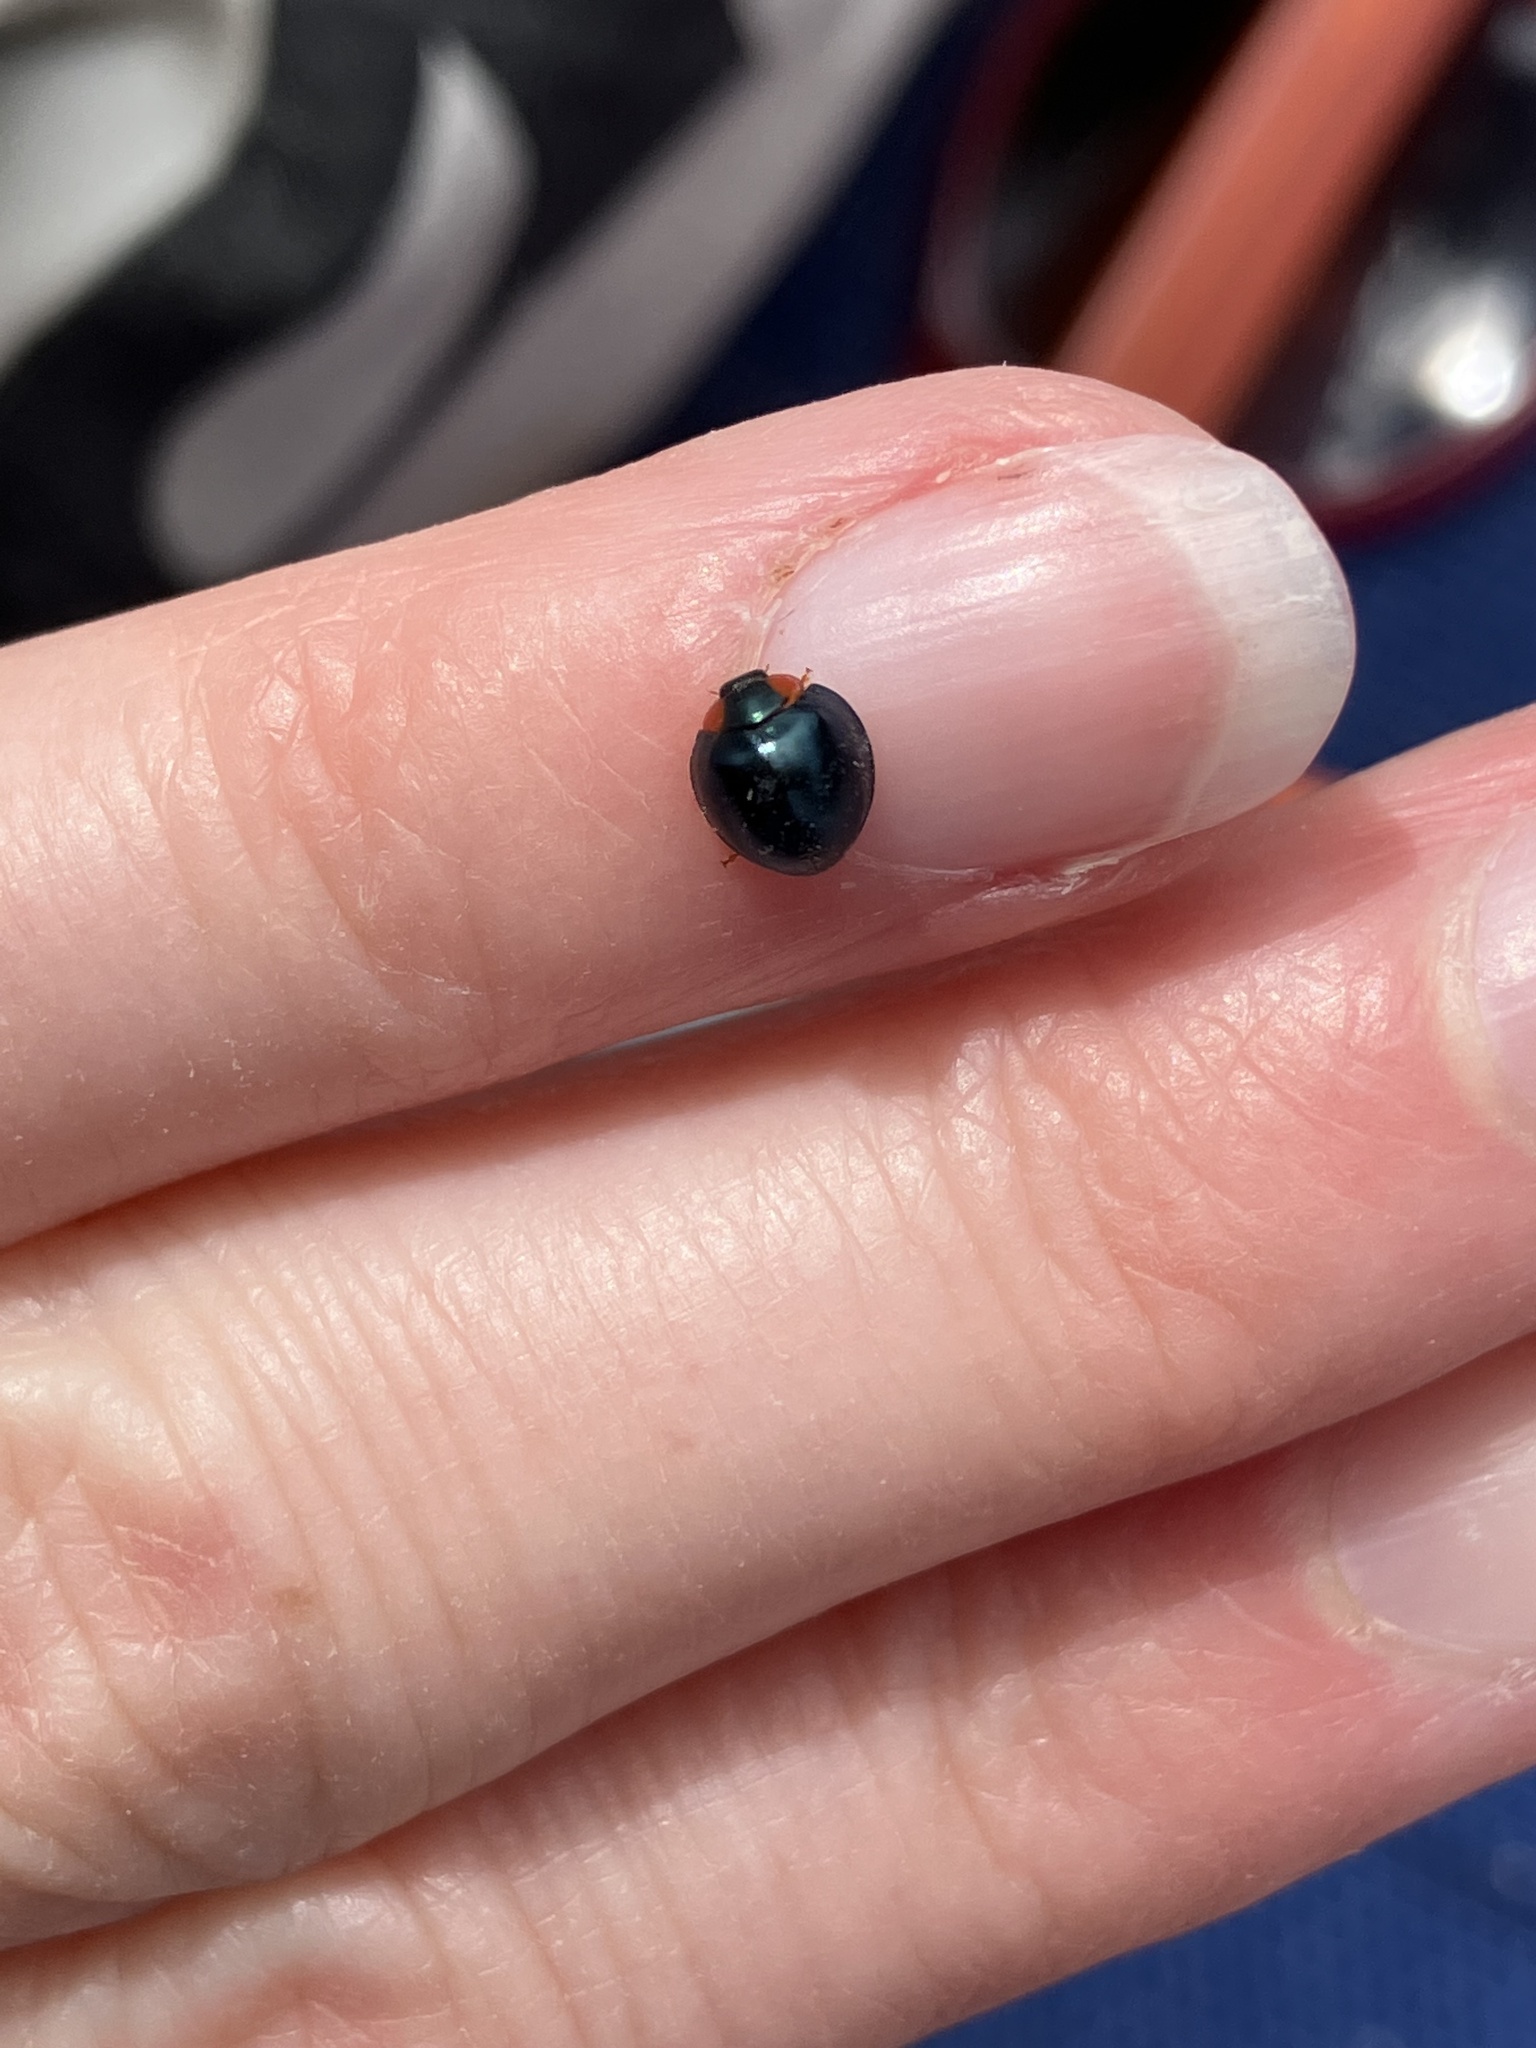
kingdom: Animalia
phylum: Arthropoda
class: Insecta
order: Coleoptera
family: Coccinellidae
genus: Curinus
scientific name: Curinus coeruleus
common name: Ladybird beetle
